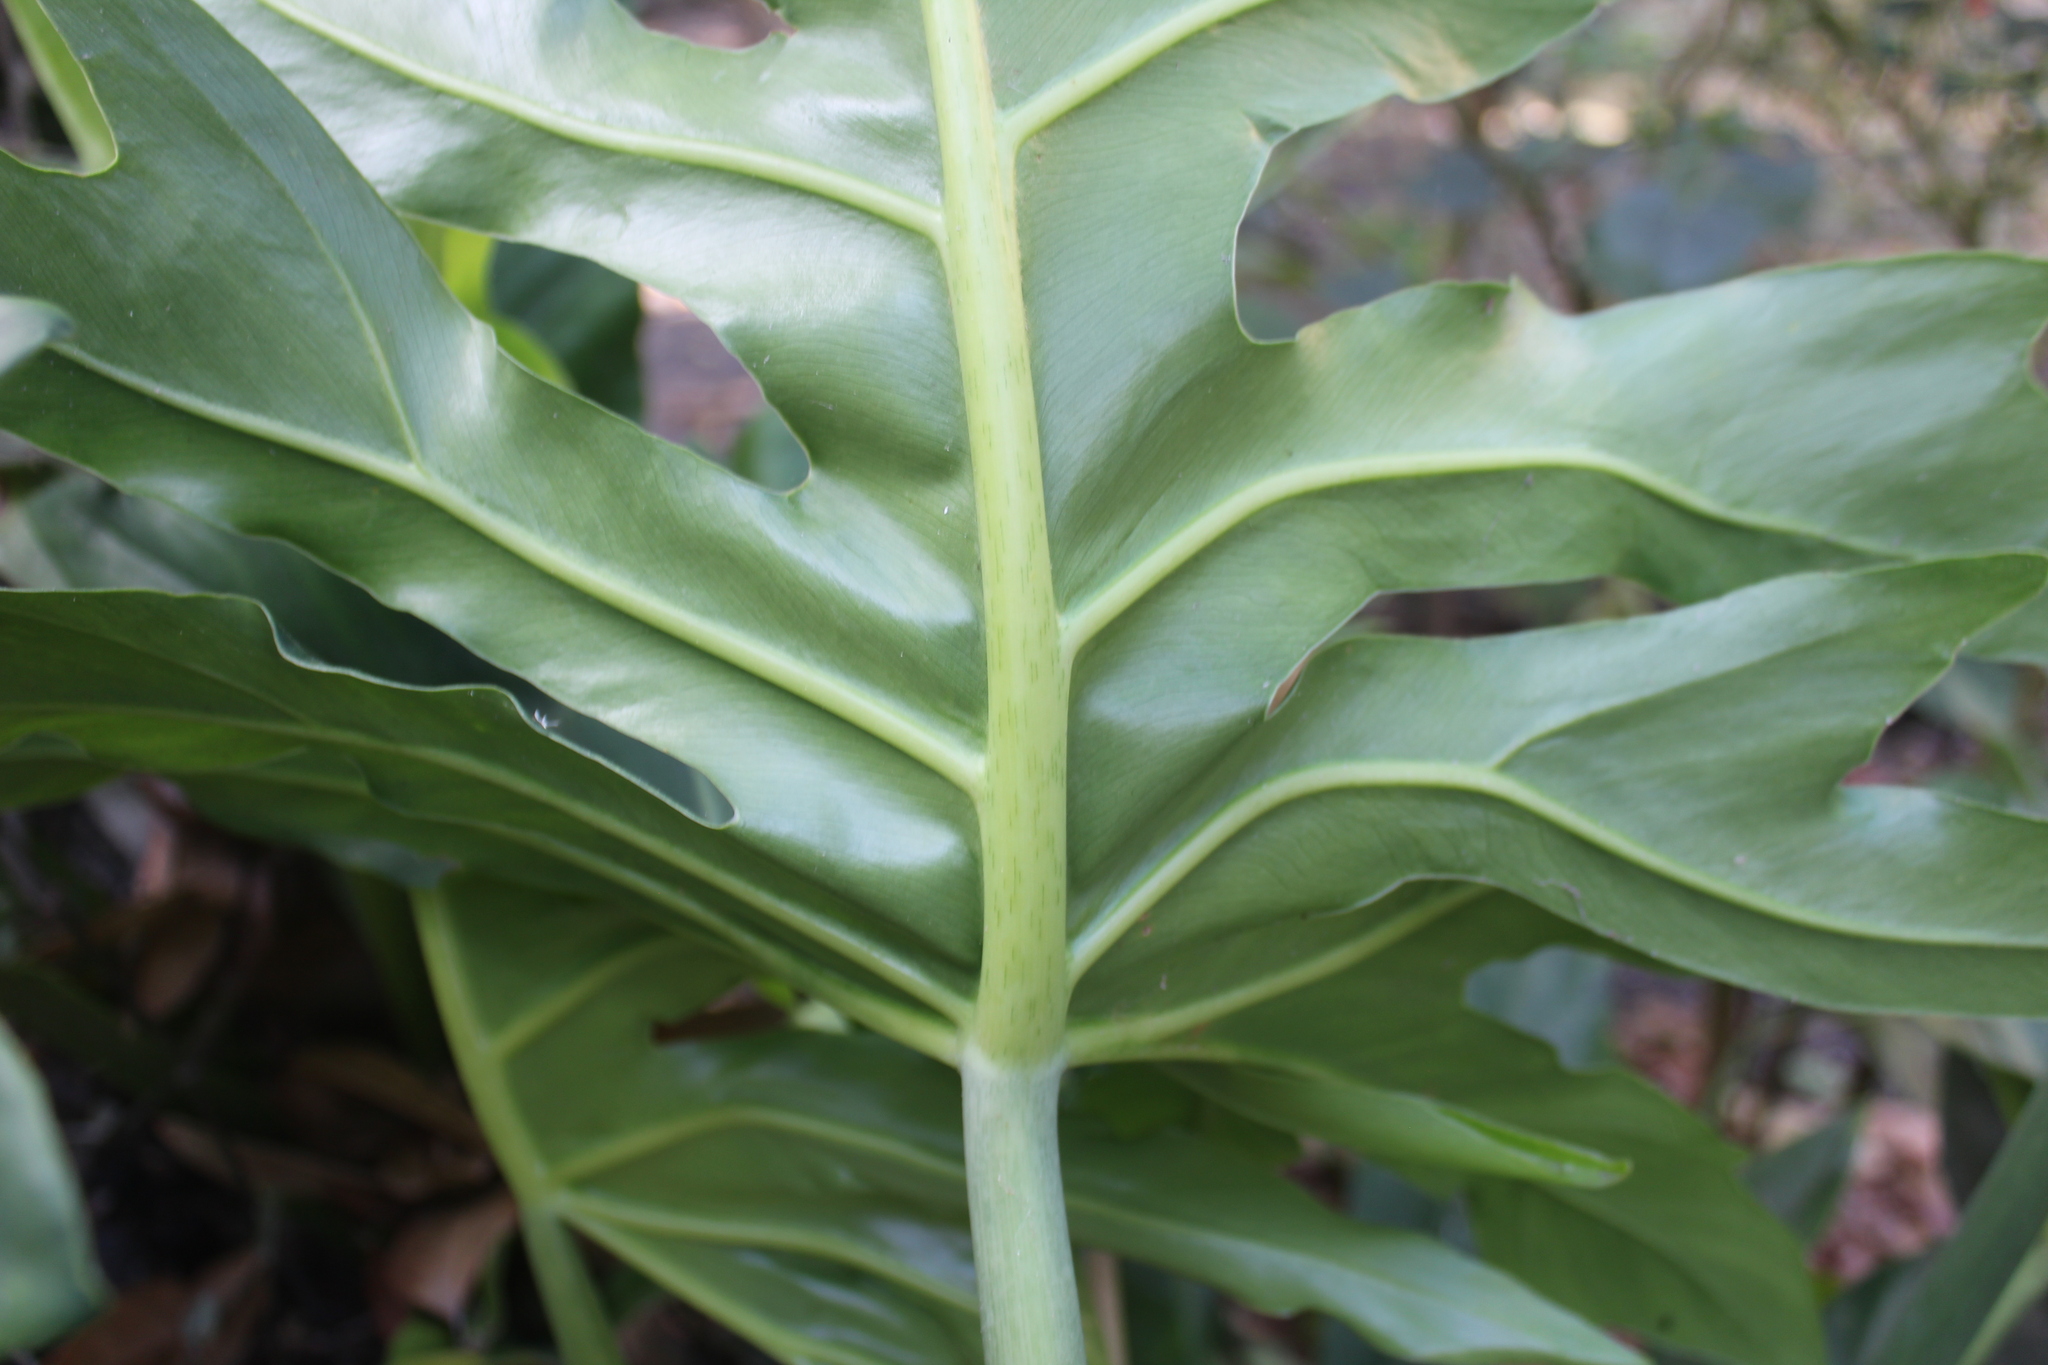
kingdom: Plantae
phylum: Tracheophyta
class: Liliopsida
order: Alismatales
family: Araceae
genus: Philodendron
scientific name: Philodendron radiatum
